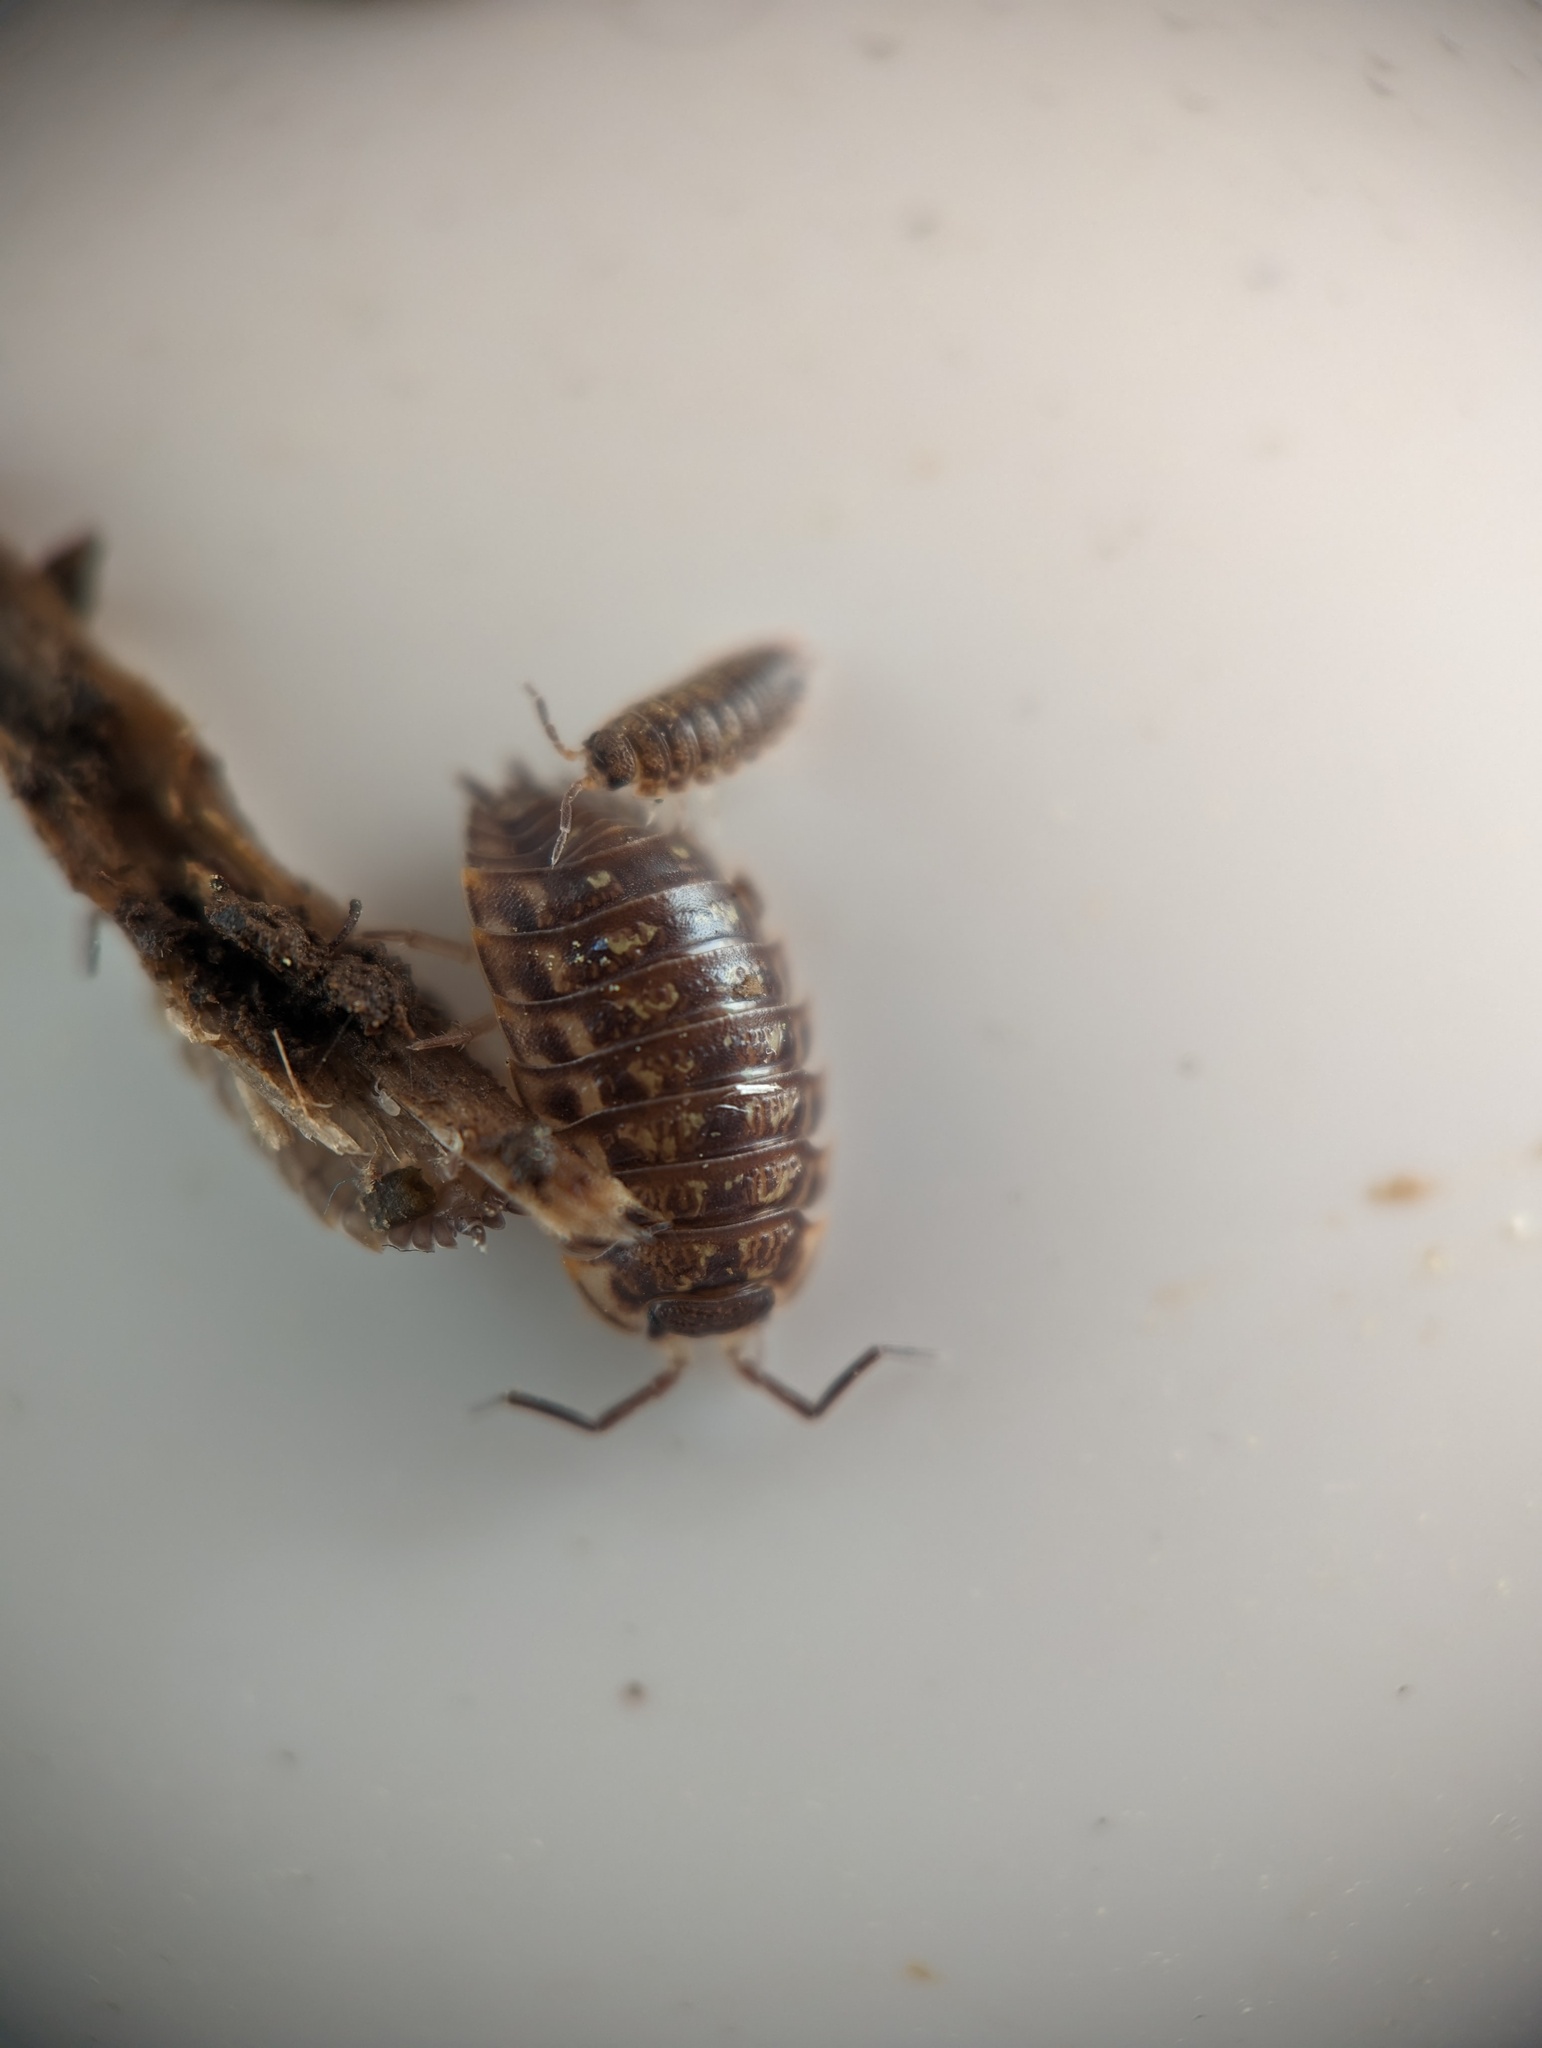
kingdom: Animalia
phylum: Arthropoda
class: Malacostraca
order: Isopoda
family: Oniscidae
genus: Oniscus
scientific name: Oniscus asellus
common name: Common shiny woodlouse
